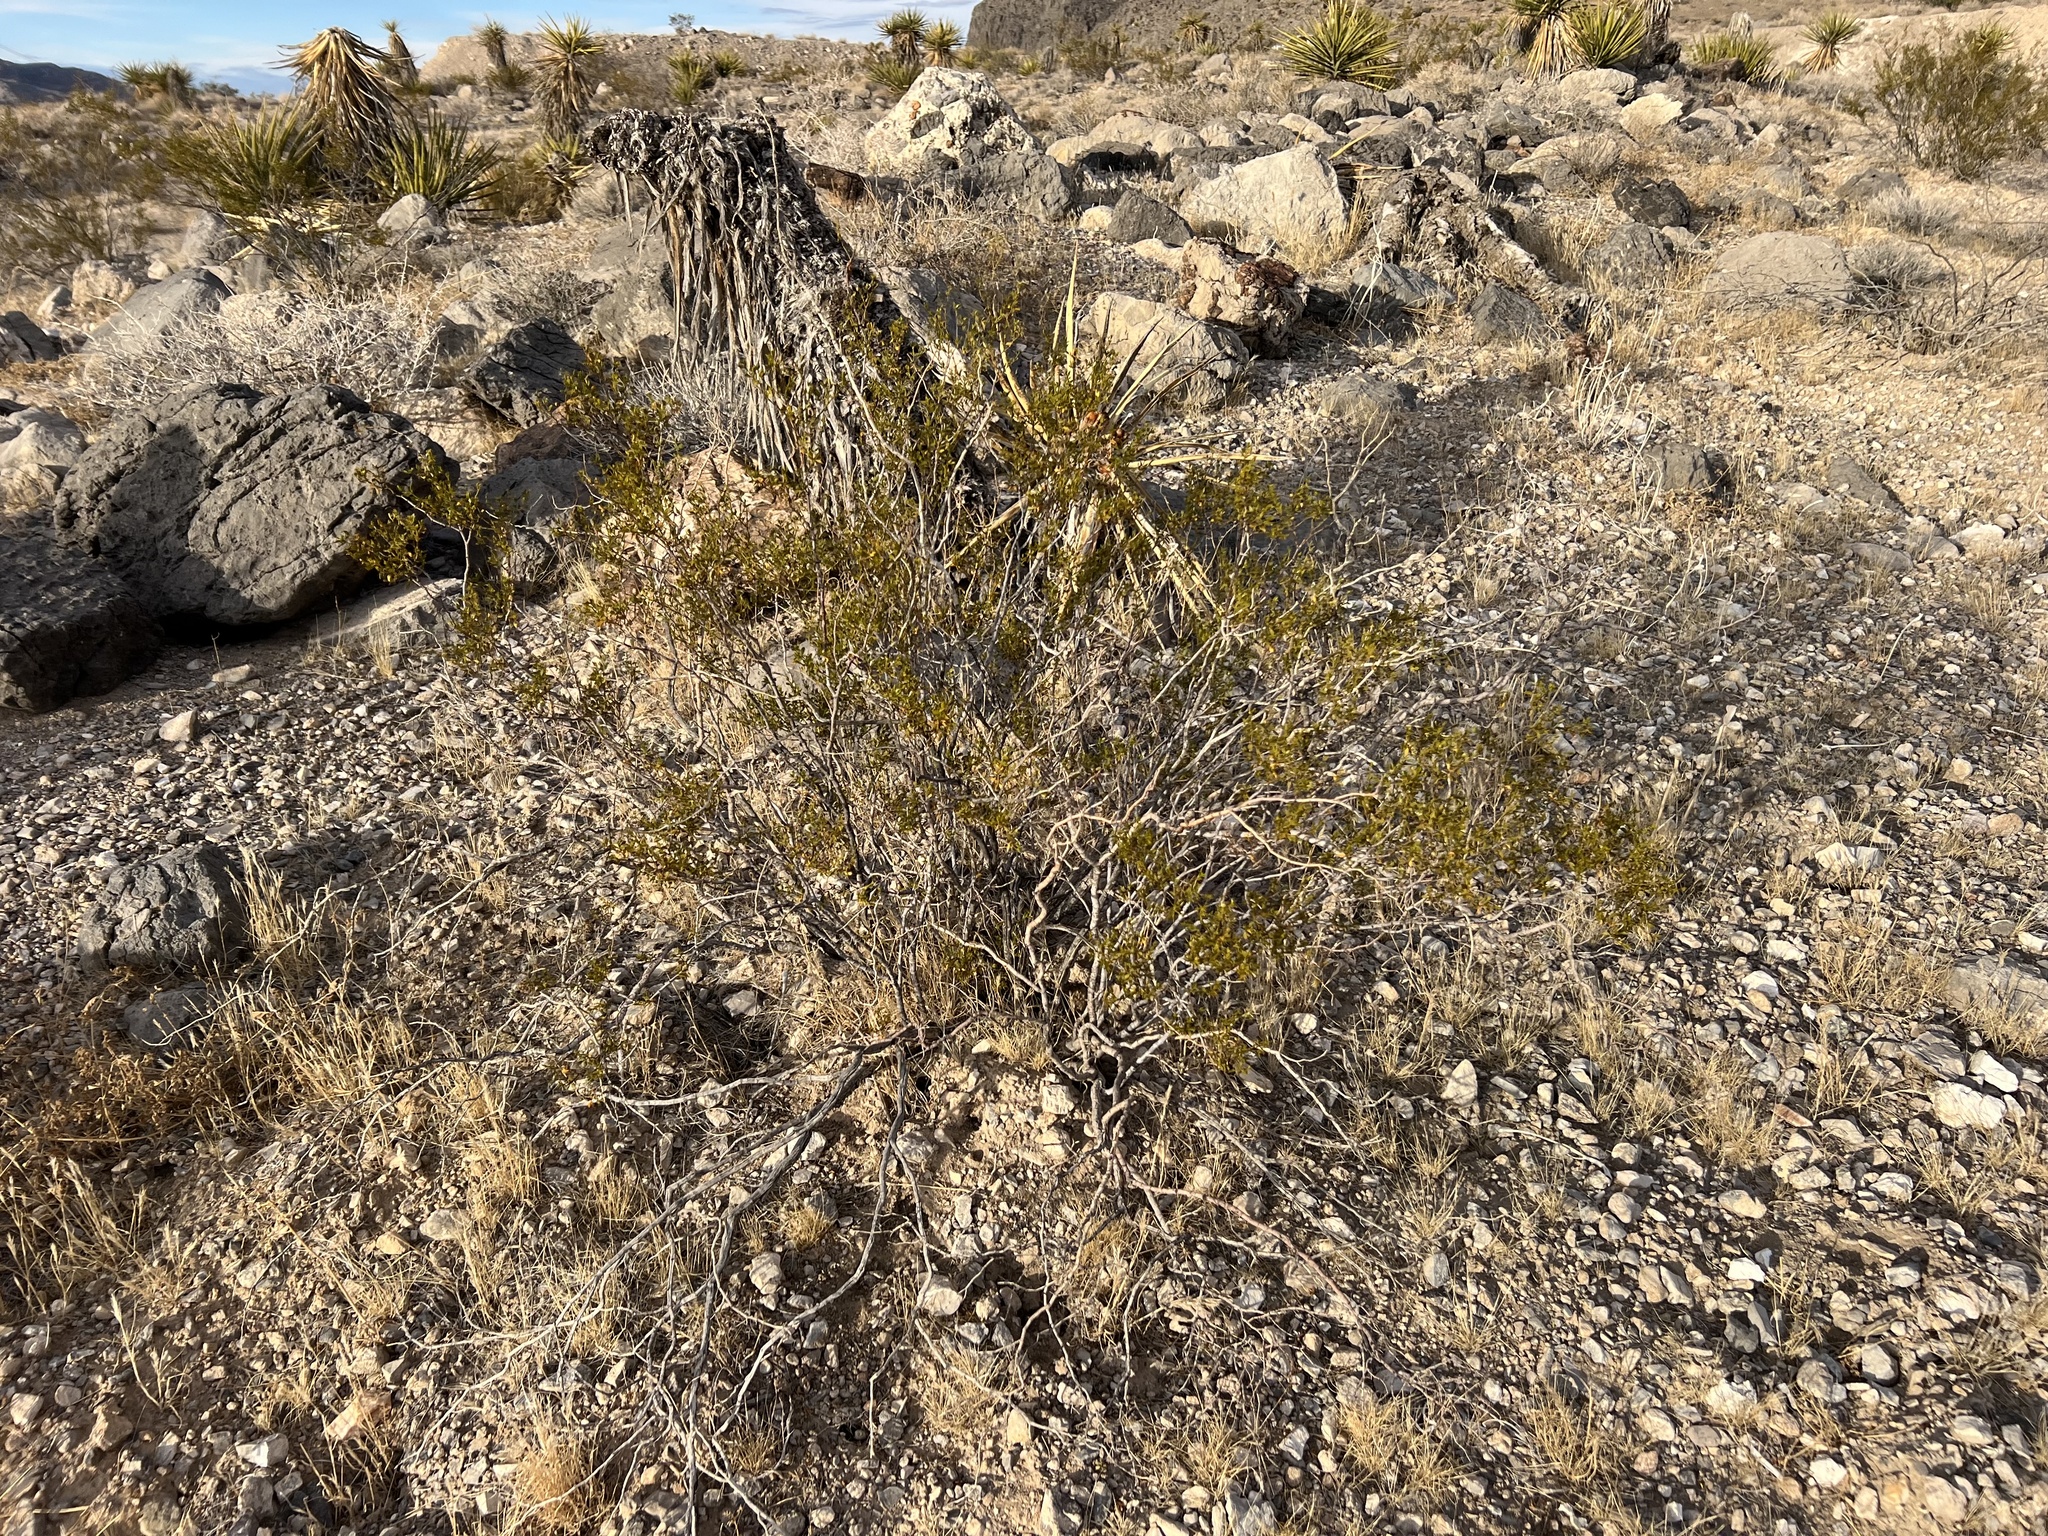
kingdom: Plantae
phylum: Tracheophyta
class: Magnoliopsida
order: Zygophyllales
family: Zygophyllaceae
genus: Larrea
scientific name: Larrea tridentata
